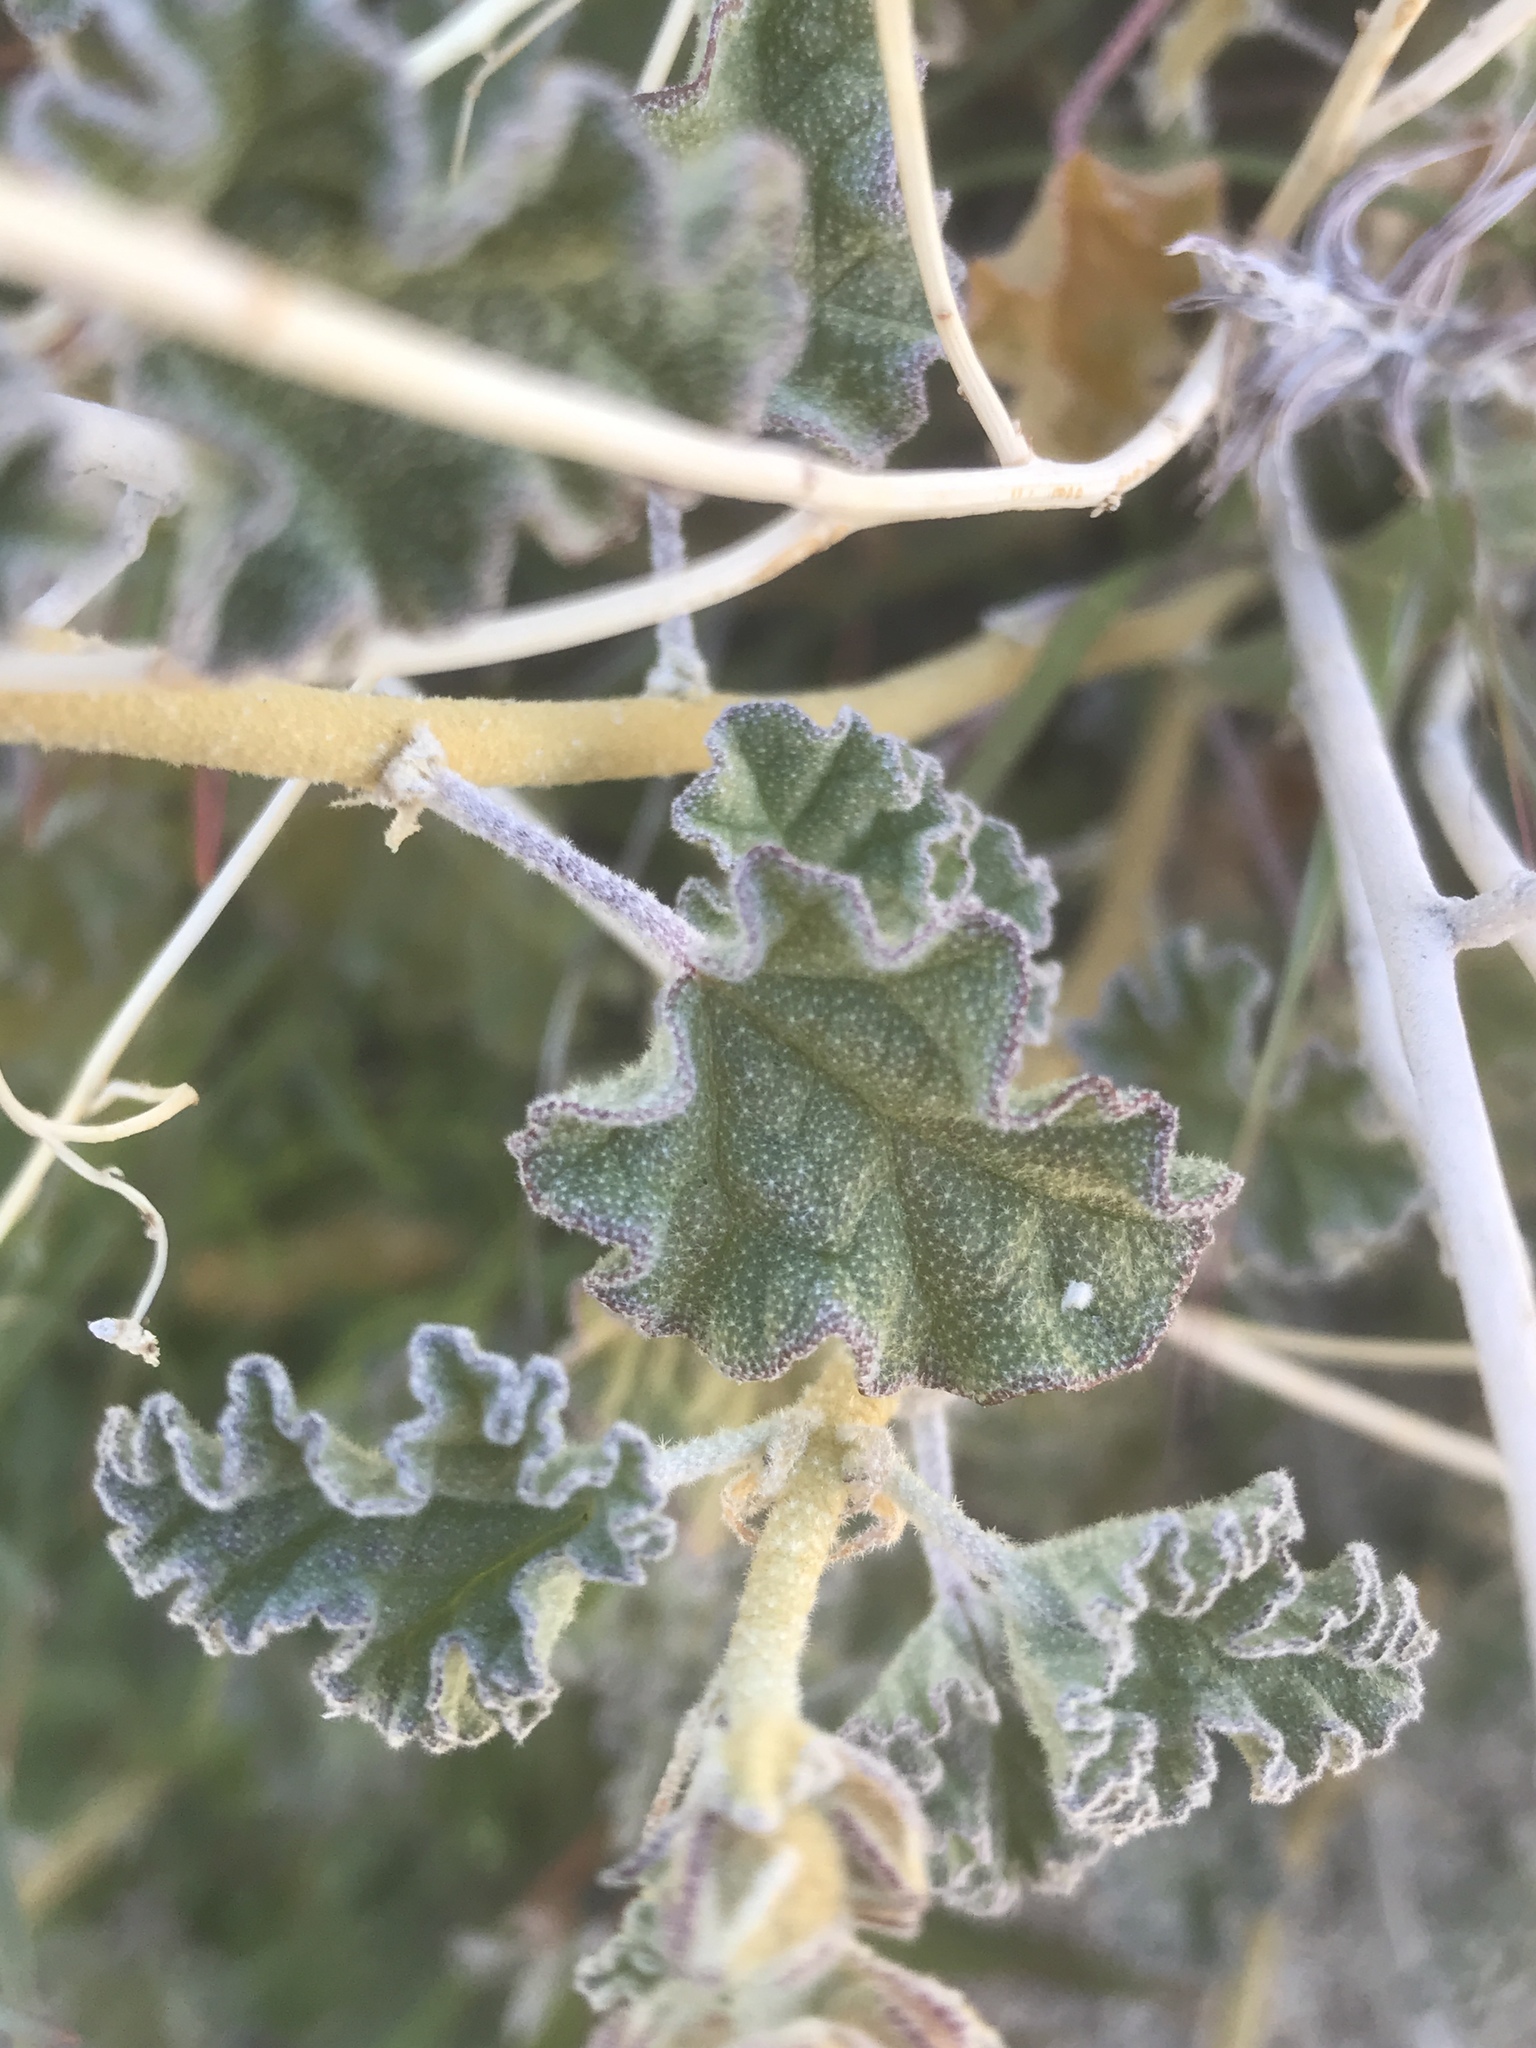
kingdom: Plantae
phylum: Tracheophyta
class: Magnoliopsida
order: Malvales
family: Malvaceae
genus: Sphaeralcea
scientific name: Sphaeralcea ambigua
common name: Apricot globe-mallow
